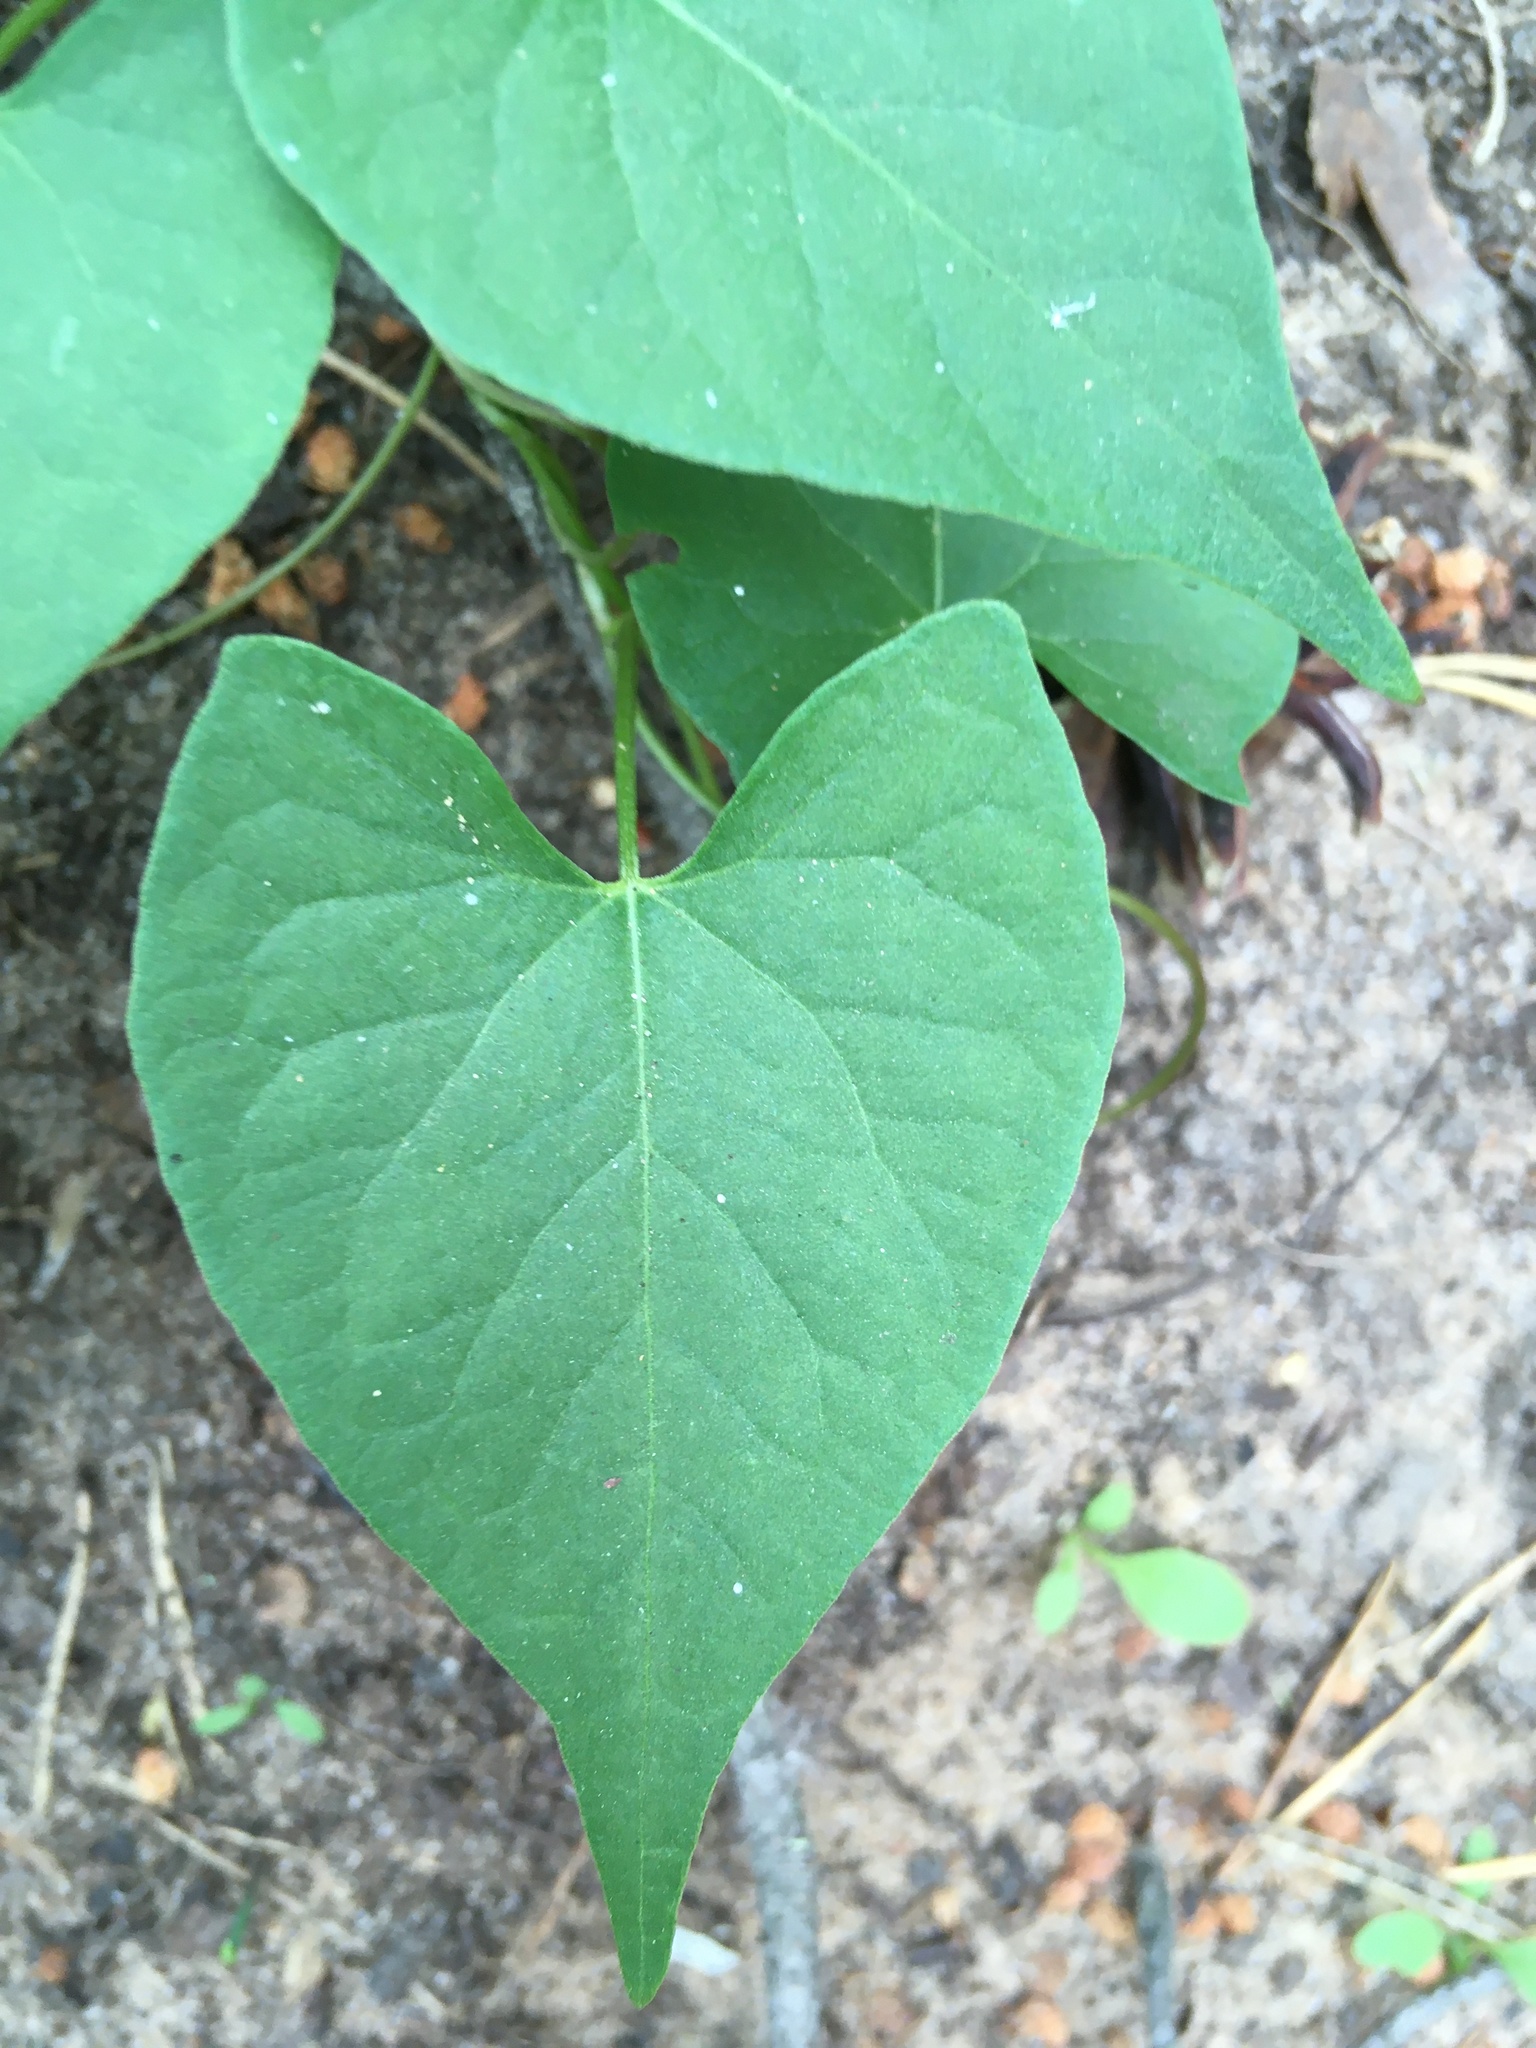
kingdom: Plantae
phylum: Tracheophyta
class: Magnoliopsida
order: Caryophyllales
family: Polygonaceae
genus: Fallopia
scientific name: Fallopia convolvulus
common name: Black bindweed
